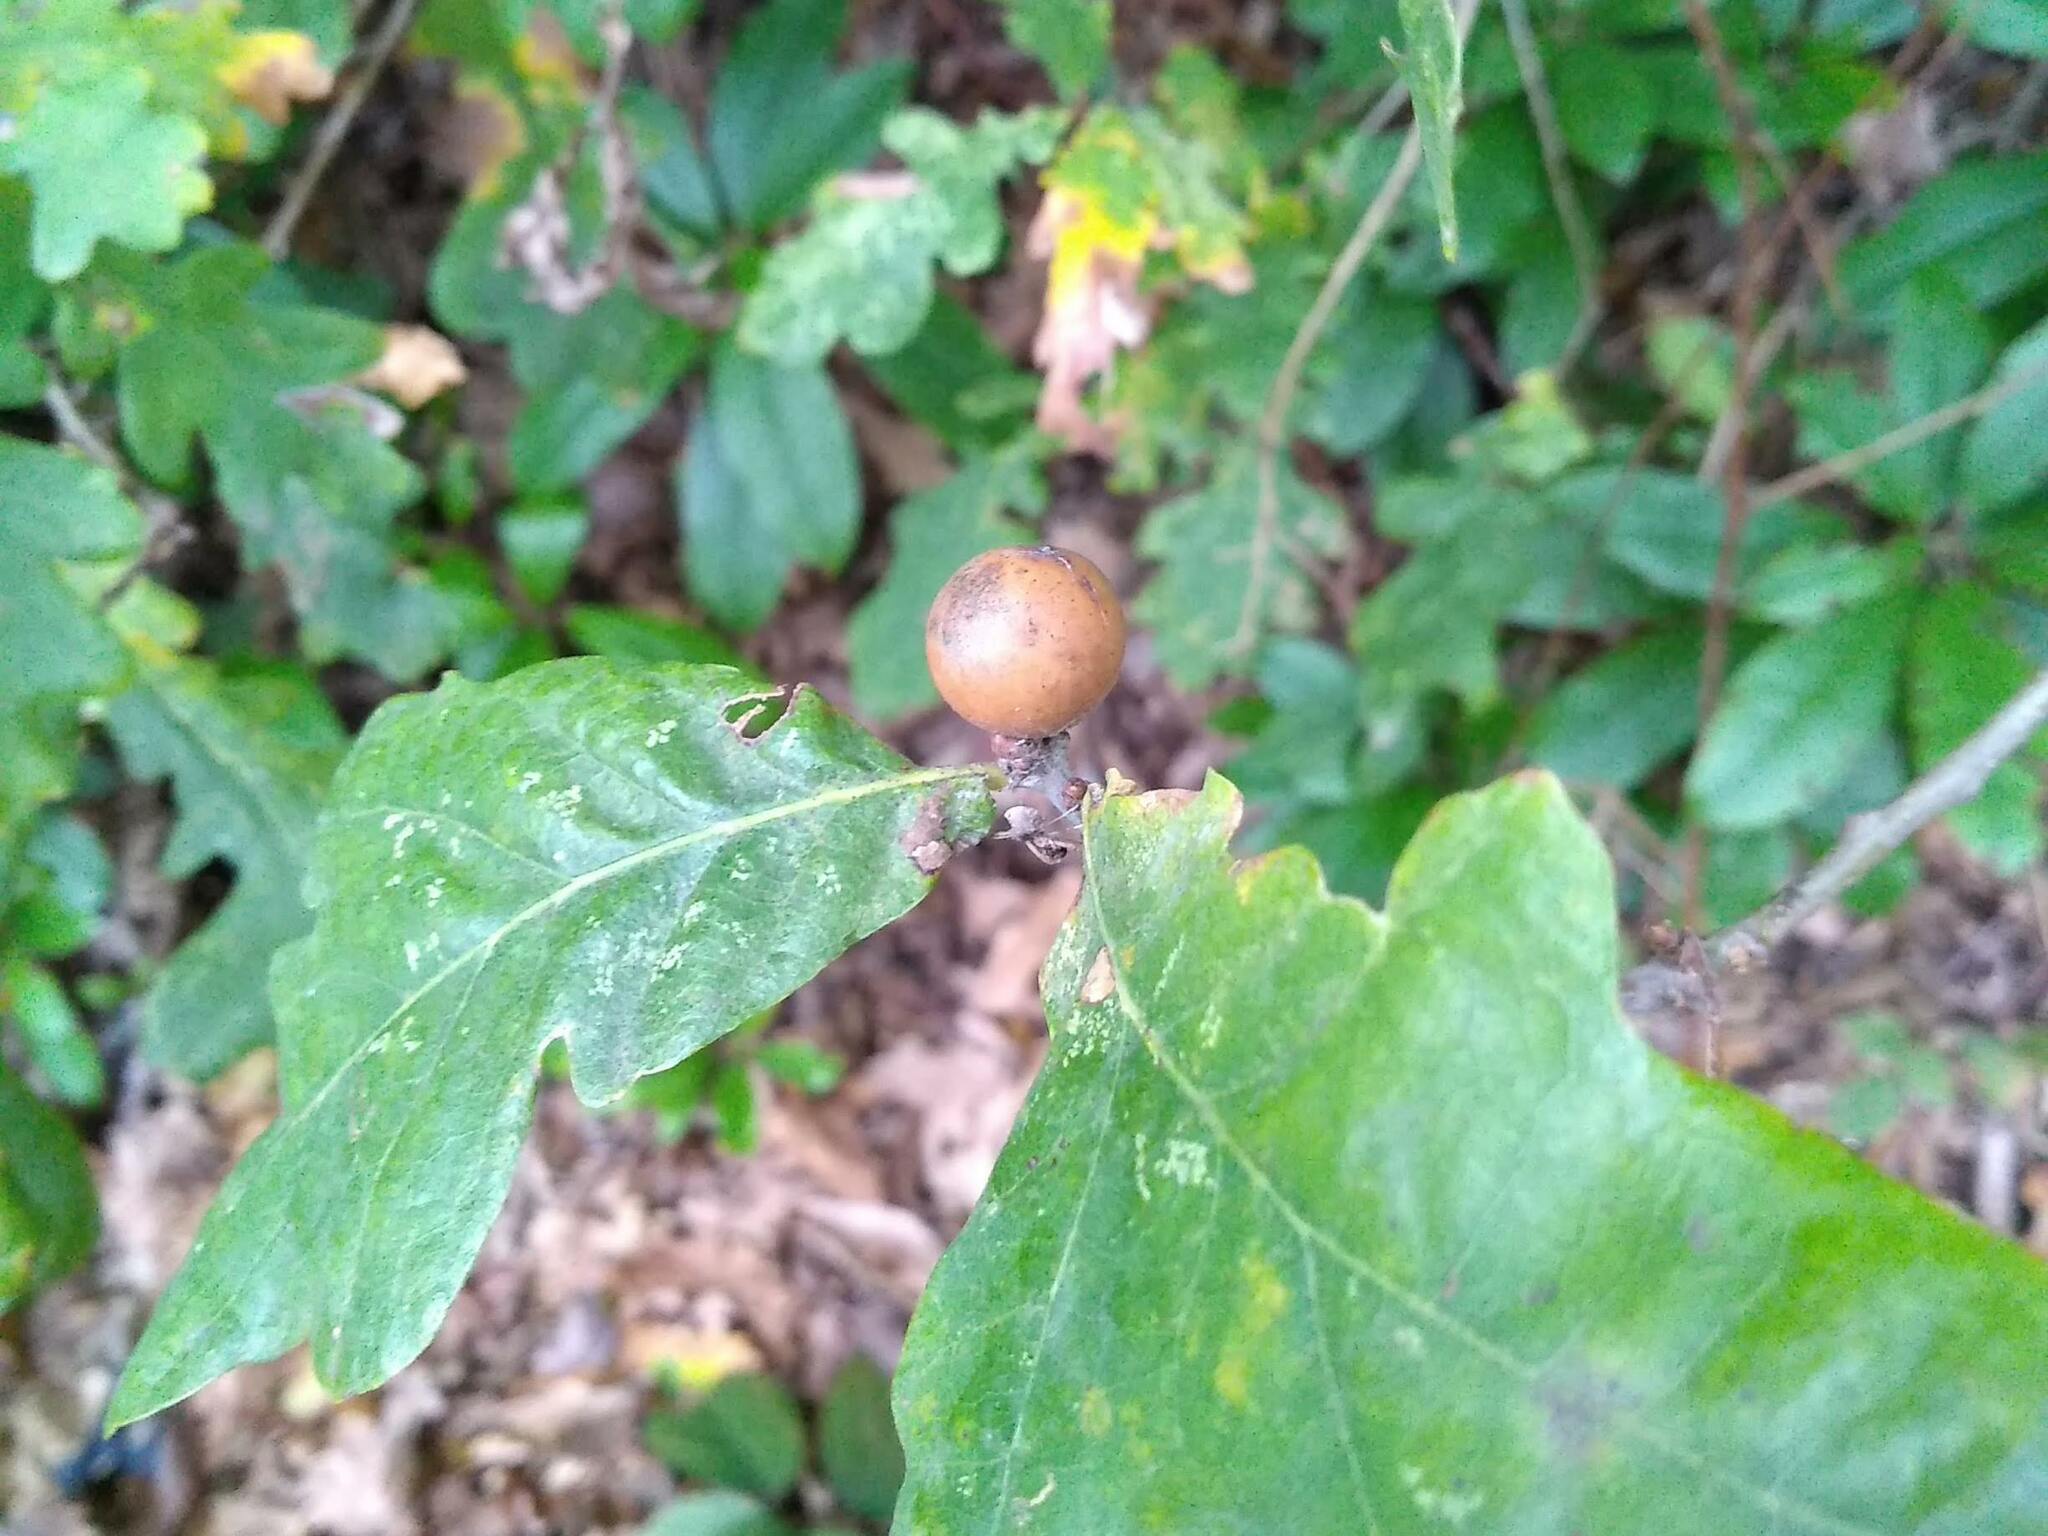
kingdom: Animalia
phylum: Arthropoda
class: Insecta
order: Hymenoptera
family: Cynipidae
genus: Andricus
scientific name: Andricus kollari
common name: Marble gall
